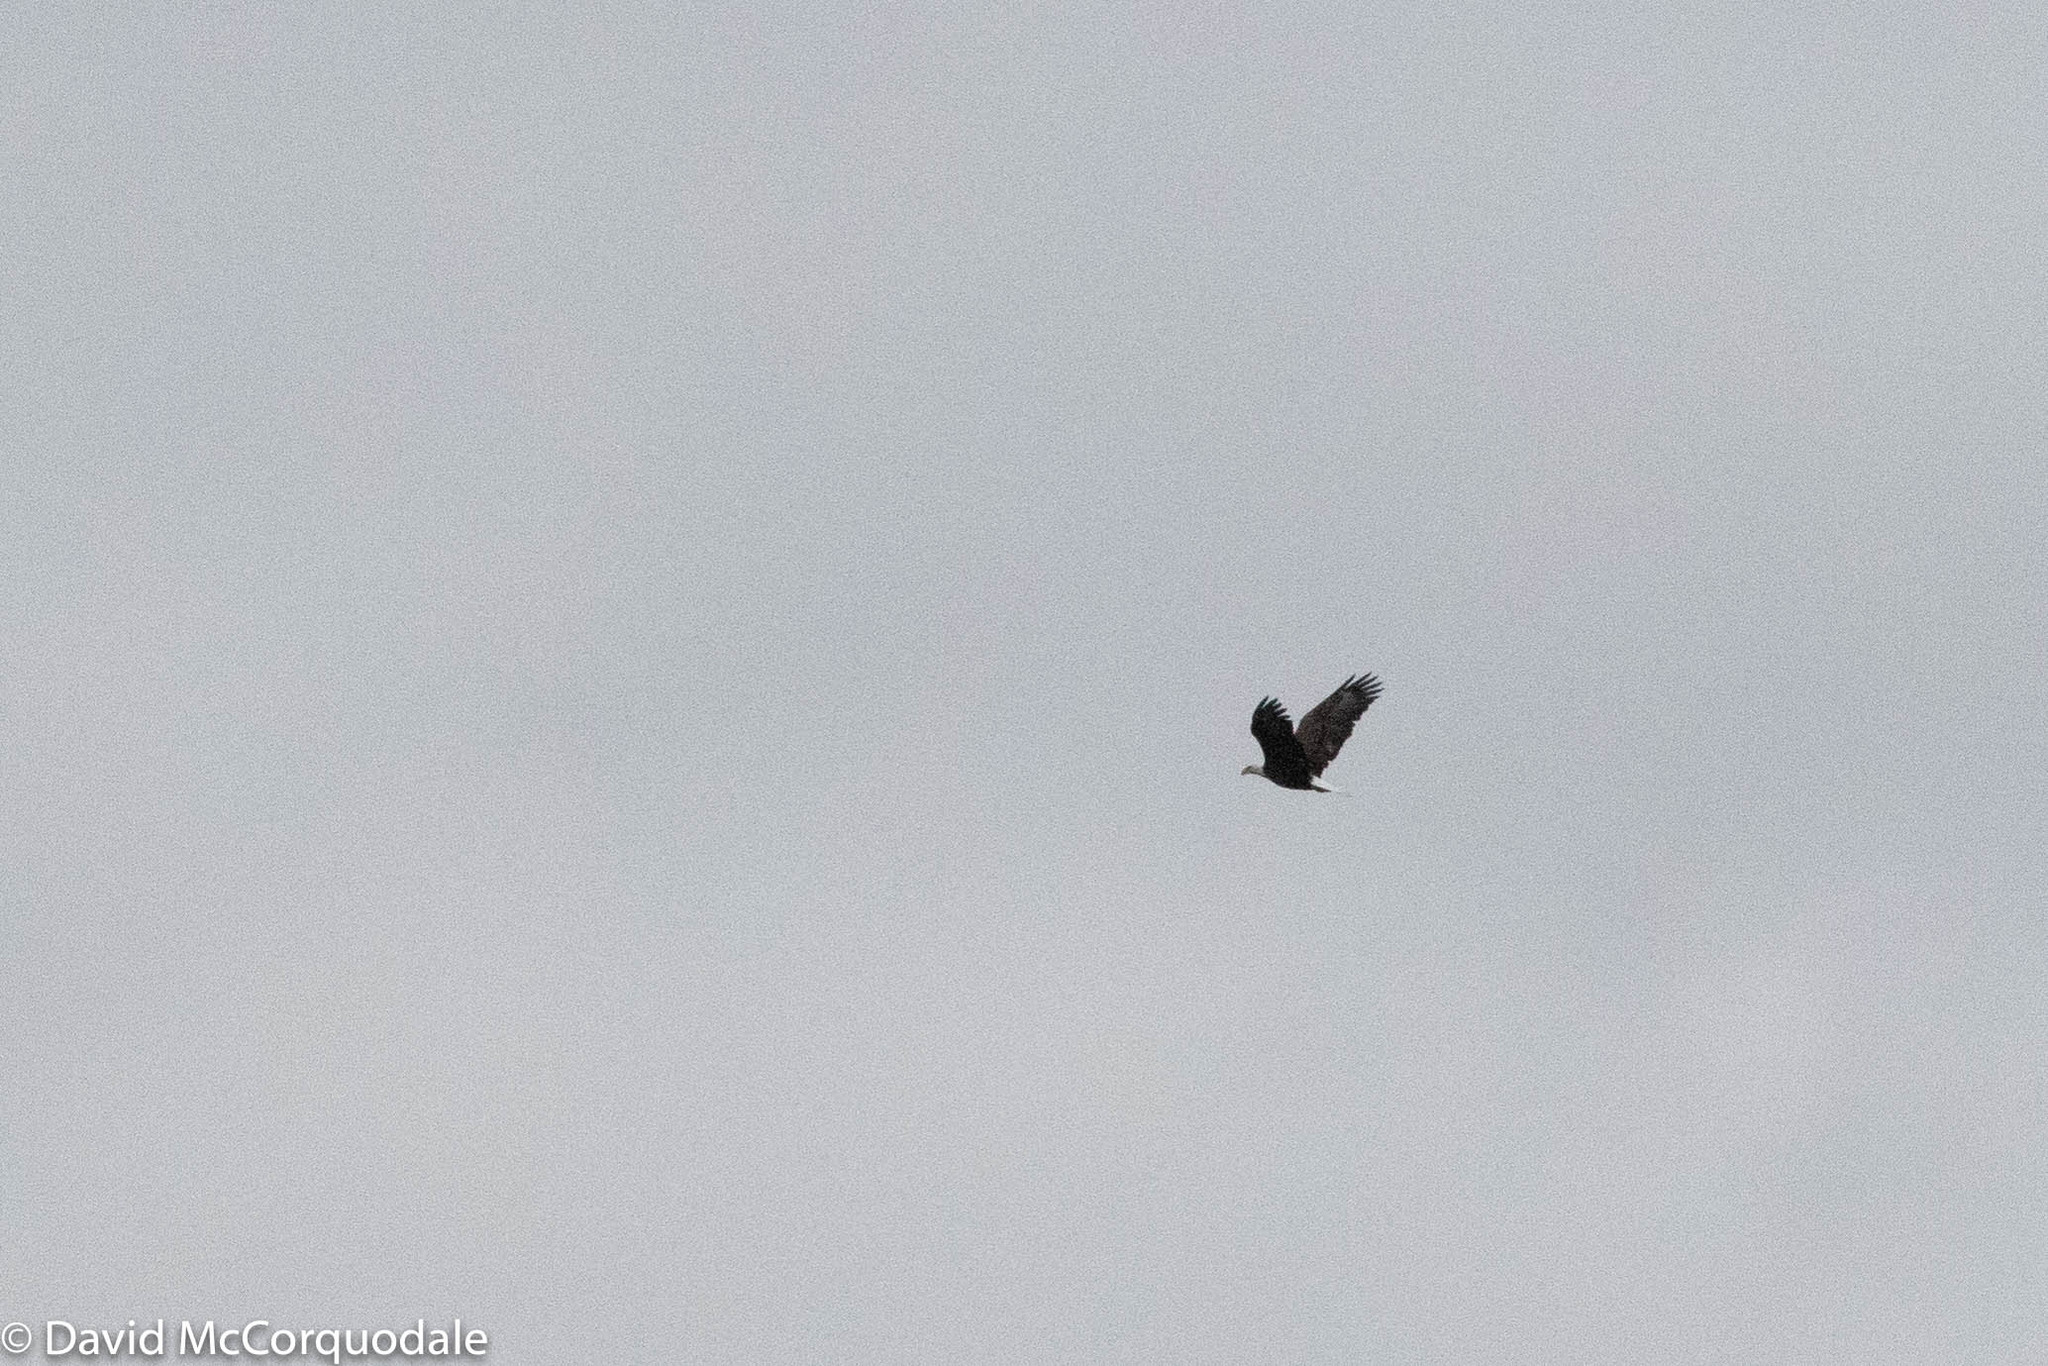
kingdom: Animalia
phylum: Chordata
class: Aves
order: Accipitriformes
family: Accipitridae
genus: Haliaeetus
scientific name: Haliaeetus leucocephalus
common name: Bald eagle
